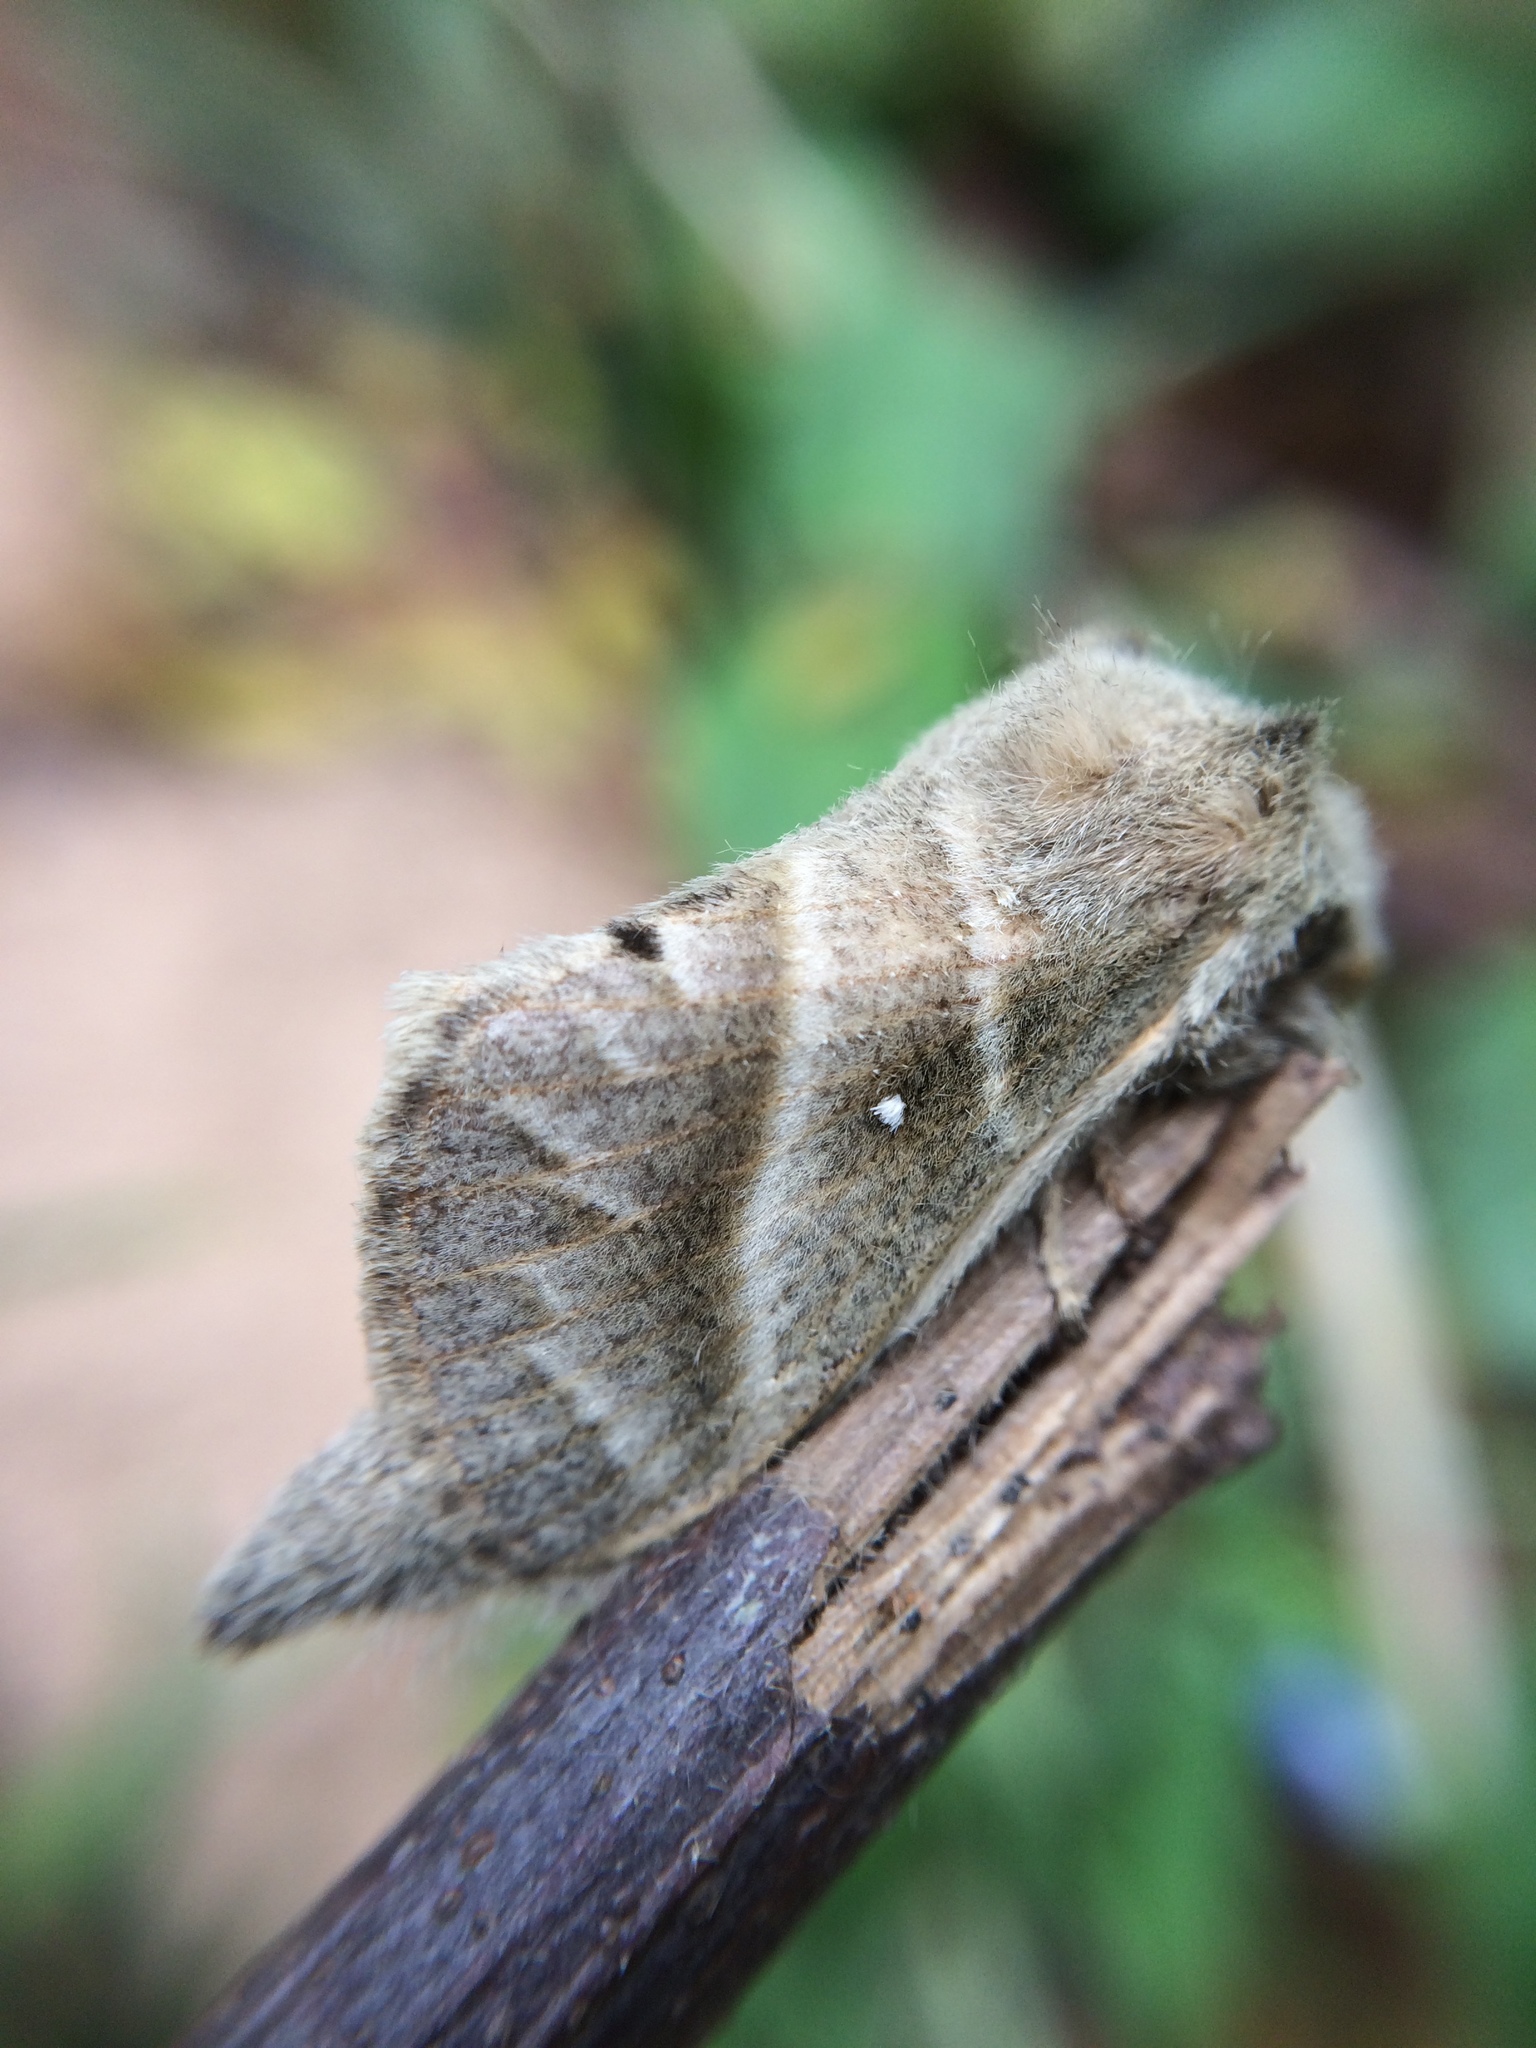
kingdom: Animalia
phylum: Arthropoda
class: Insecta
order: Lepidoptera
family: Lasiocampidae
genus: Bombycopsis
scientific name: Bombycopsis bipars
